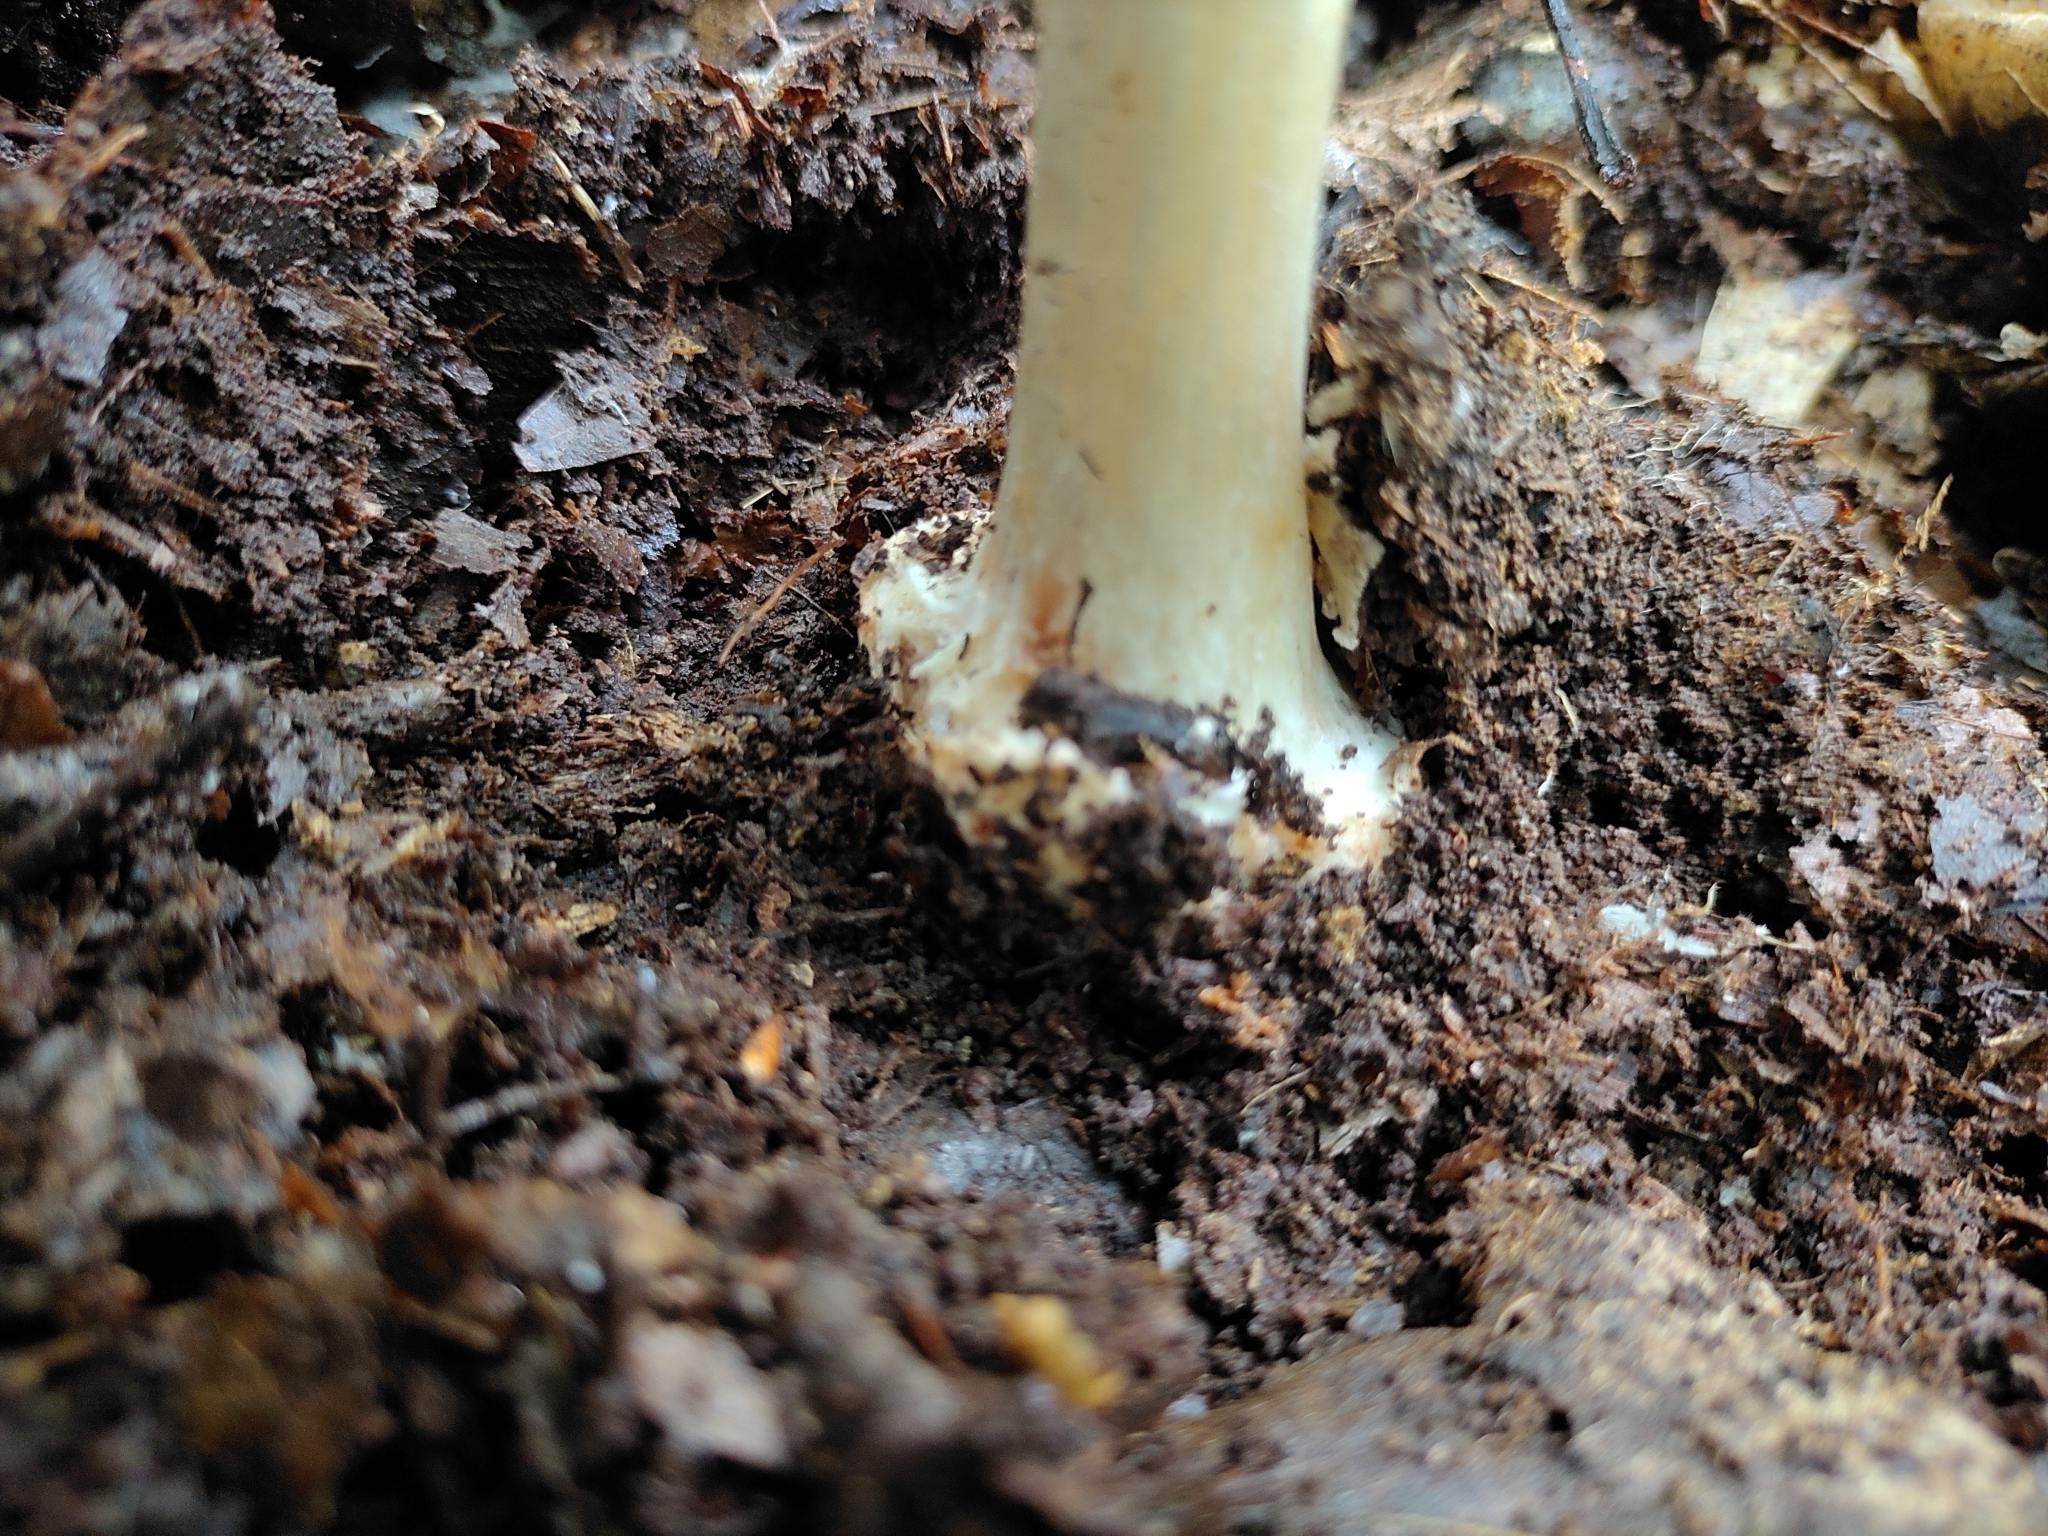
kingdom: Fungi
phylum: Basidiomycota
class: Agaricomycetes
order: Agaricales
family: Amanitaceae
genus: Amanita
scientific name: Amanita brunnescens
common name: Brown american star-footed amanita
